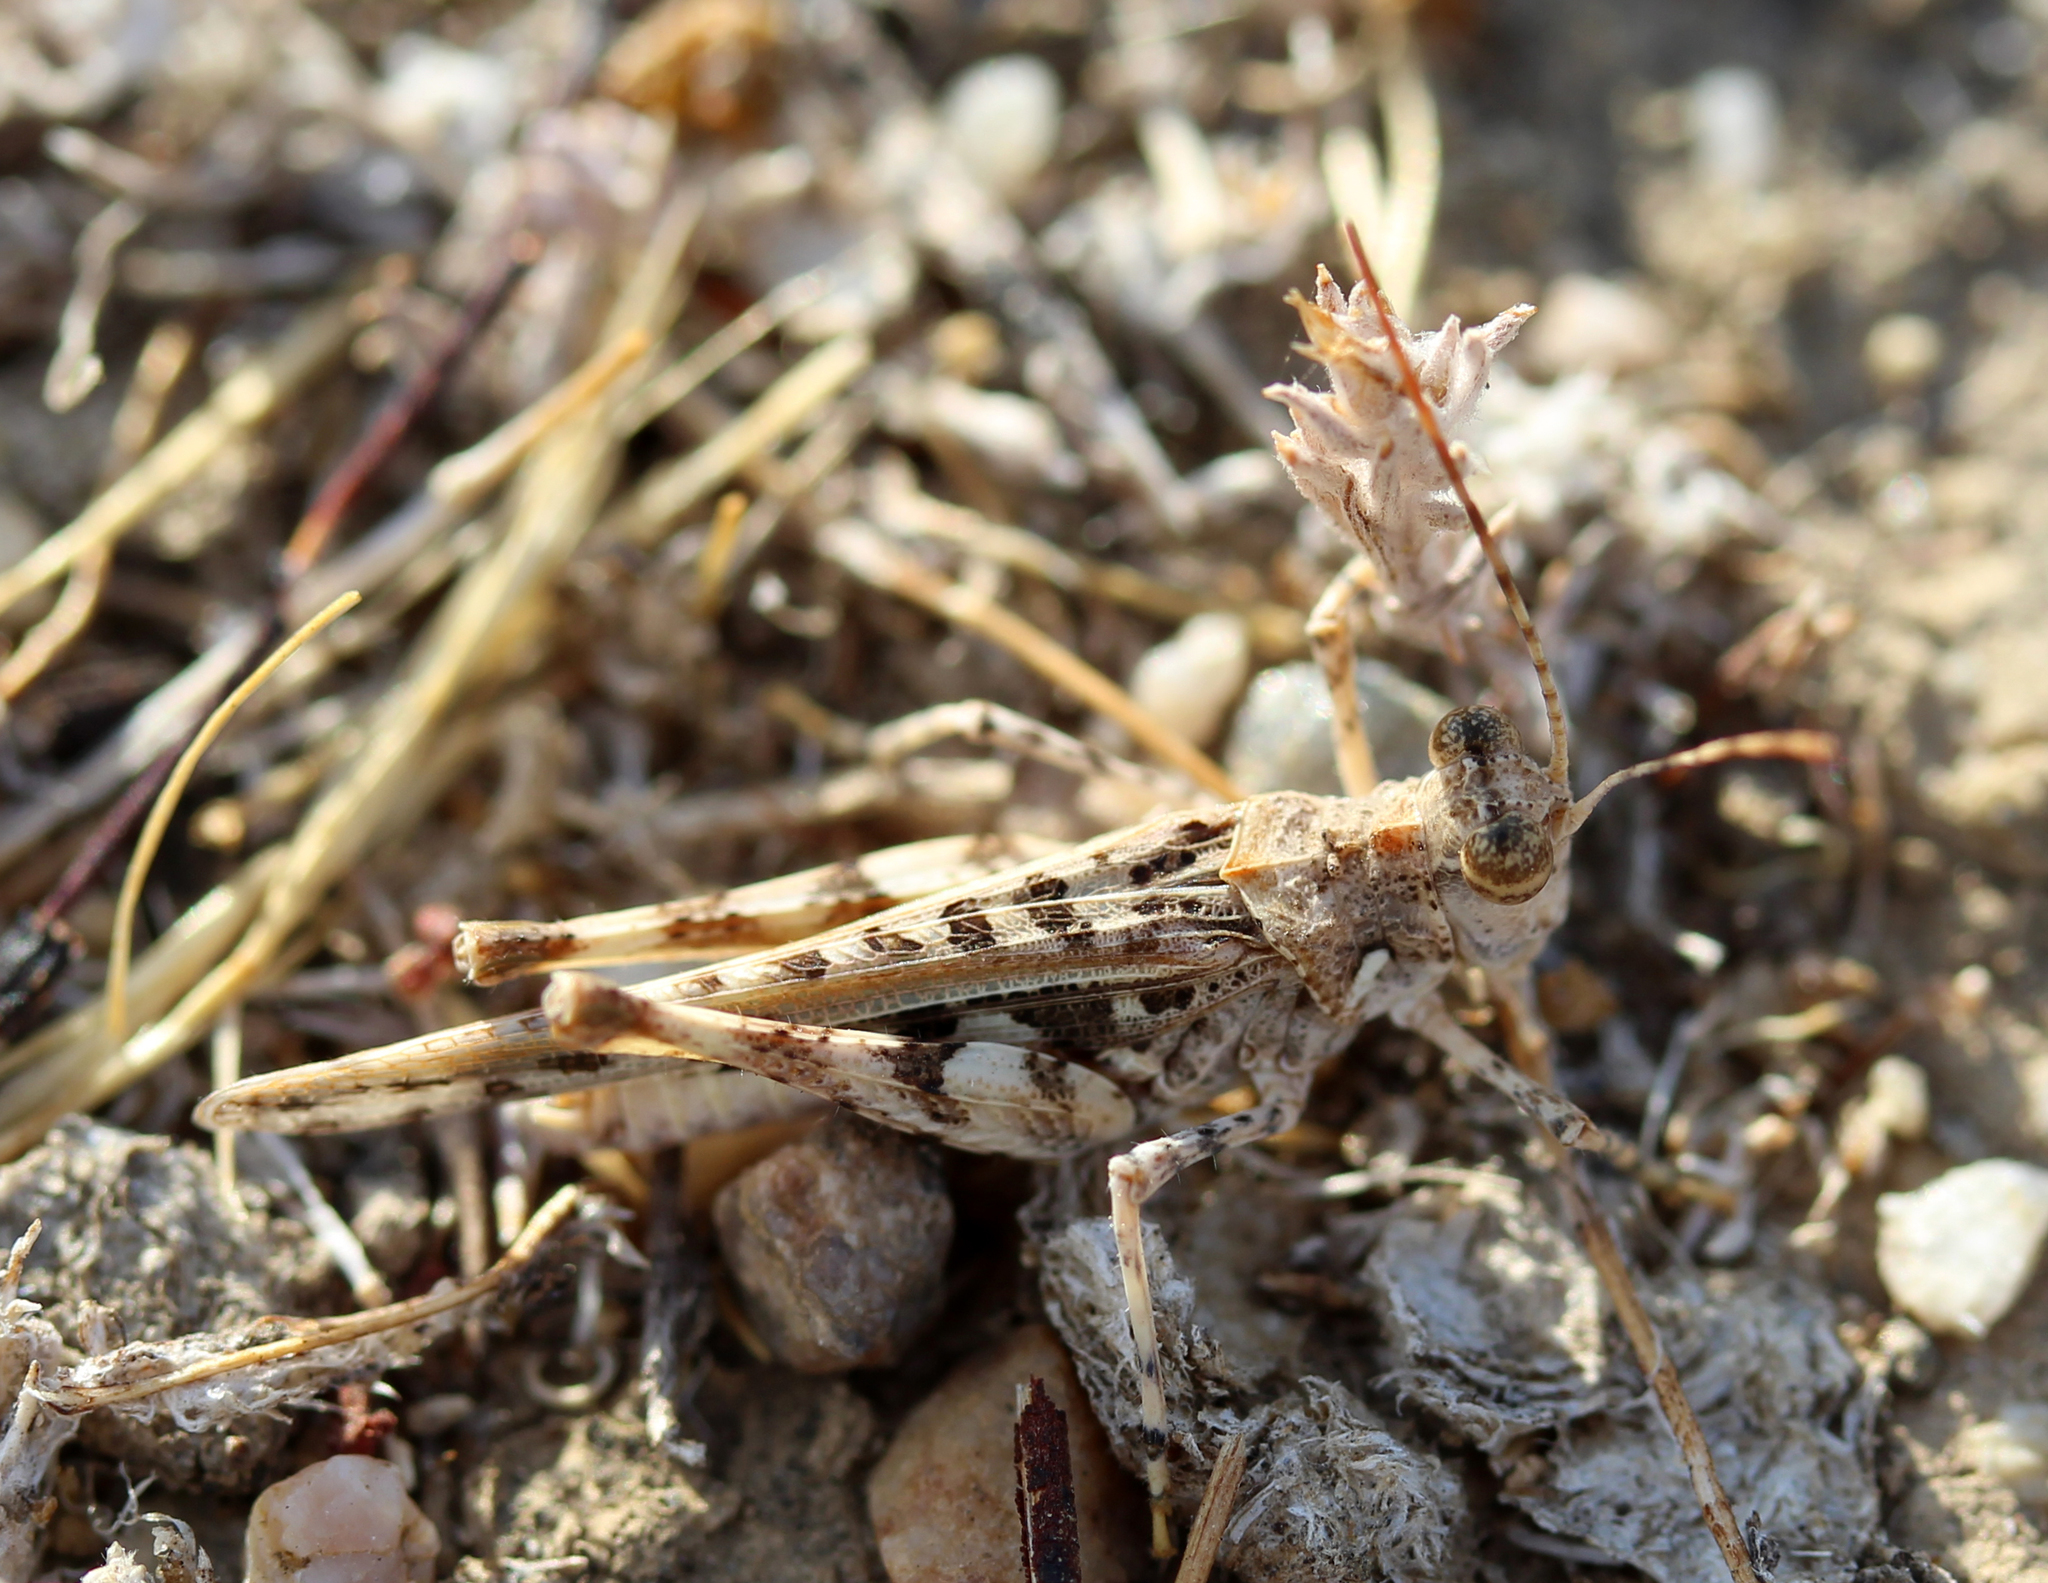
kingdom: Animalia
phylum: Arthropoda
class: Insecta
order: Orthoptera
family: Acrididae
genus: Derotmema
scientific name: Derotmema saussureanum
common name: Saussure's desert grasshopper
